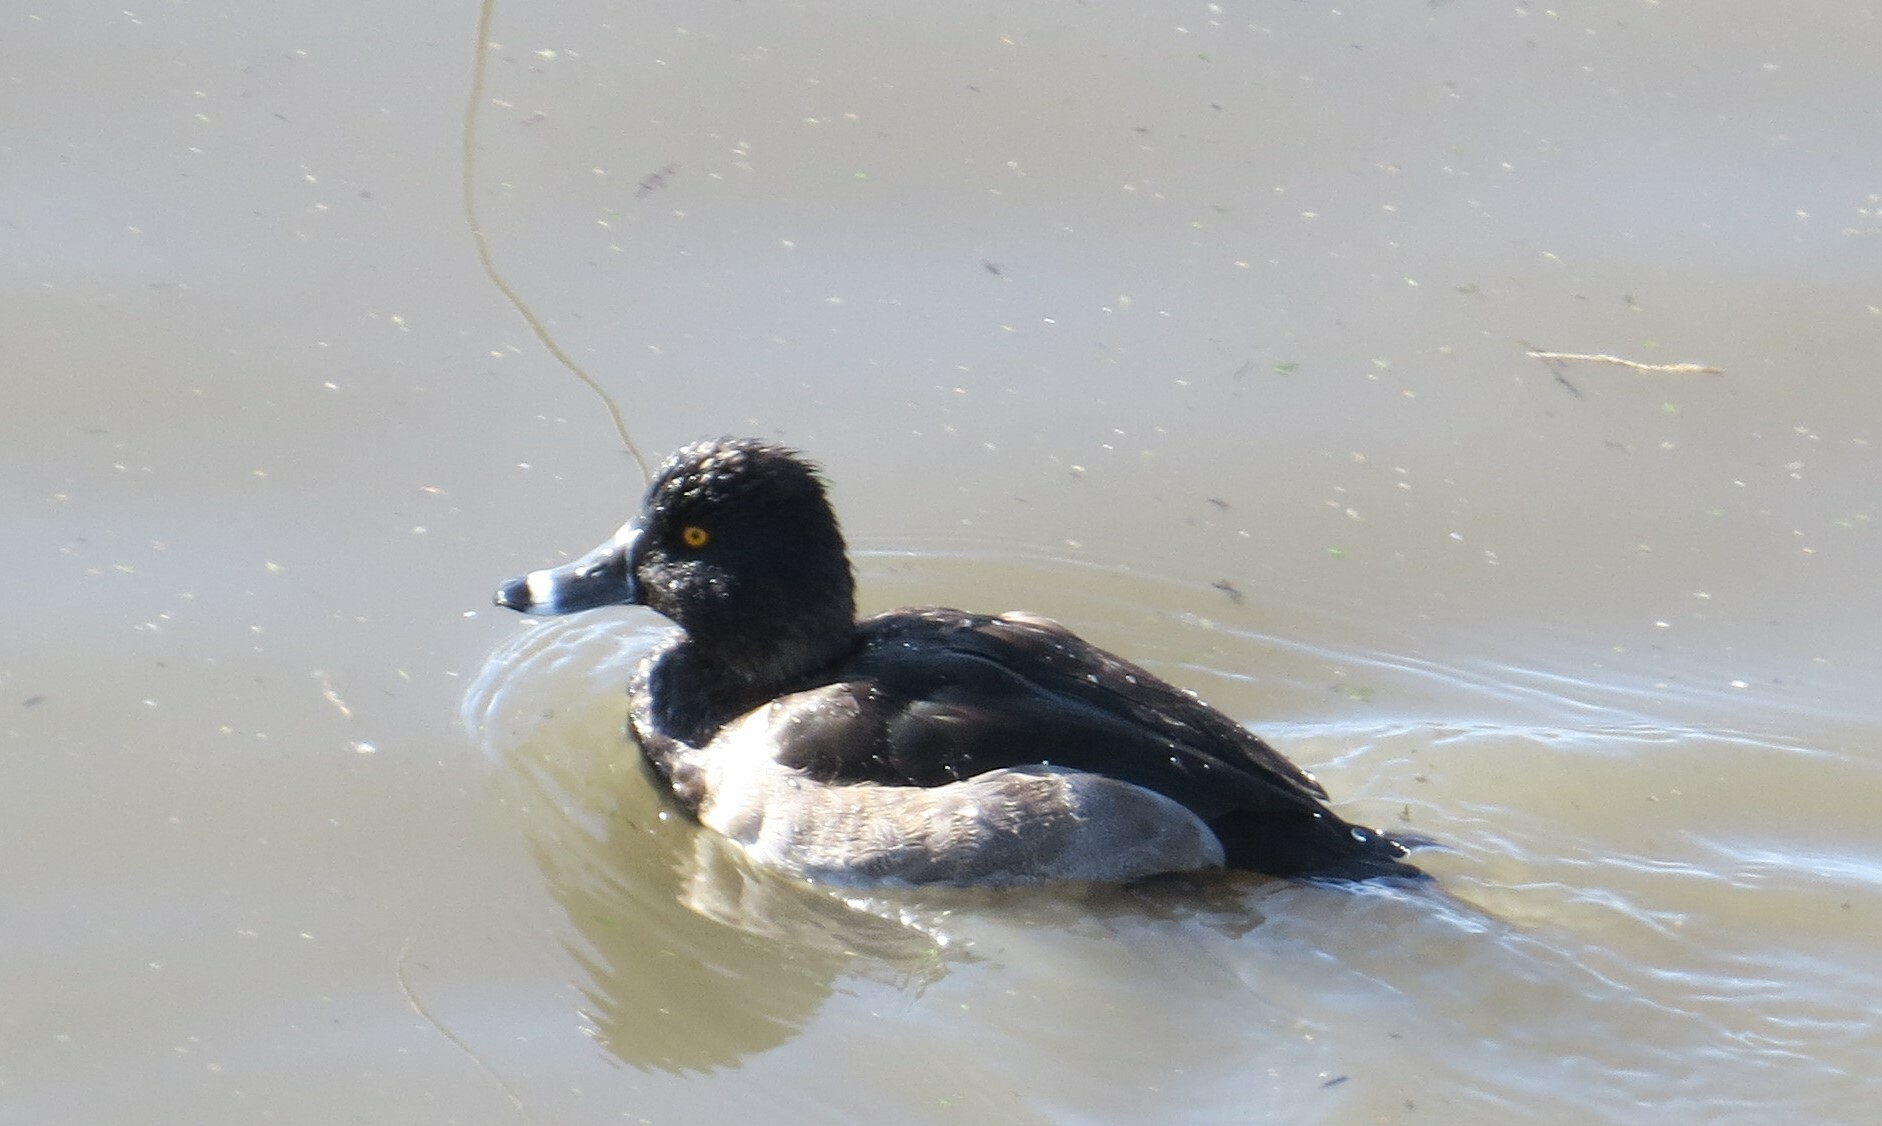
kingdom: Animalia
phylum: Chordata
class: Aves
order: Anseriformes
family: Anatidae
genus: Aythya
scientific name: Aythya collaris
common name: Ring-necked duck
